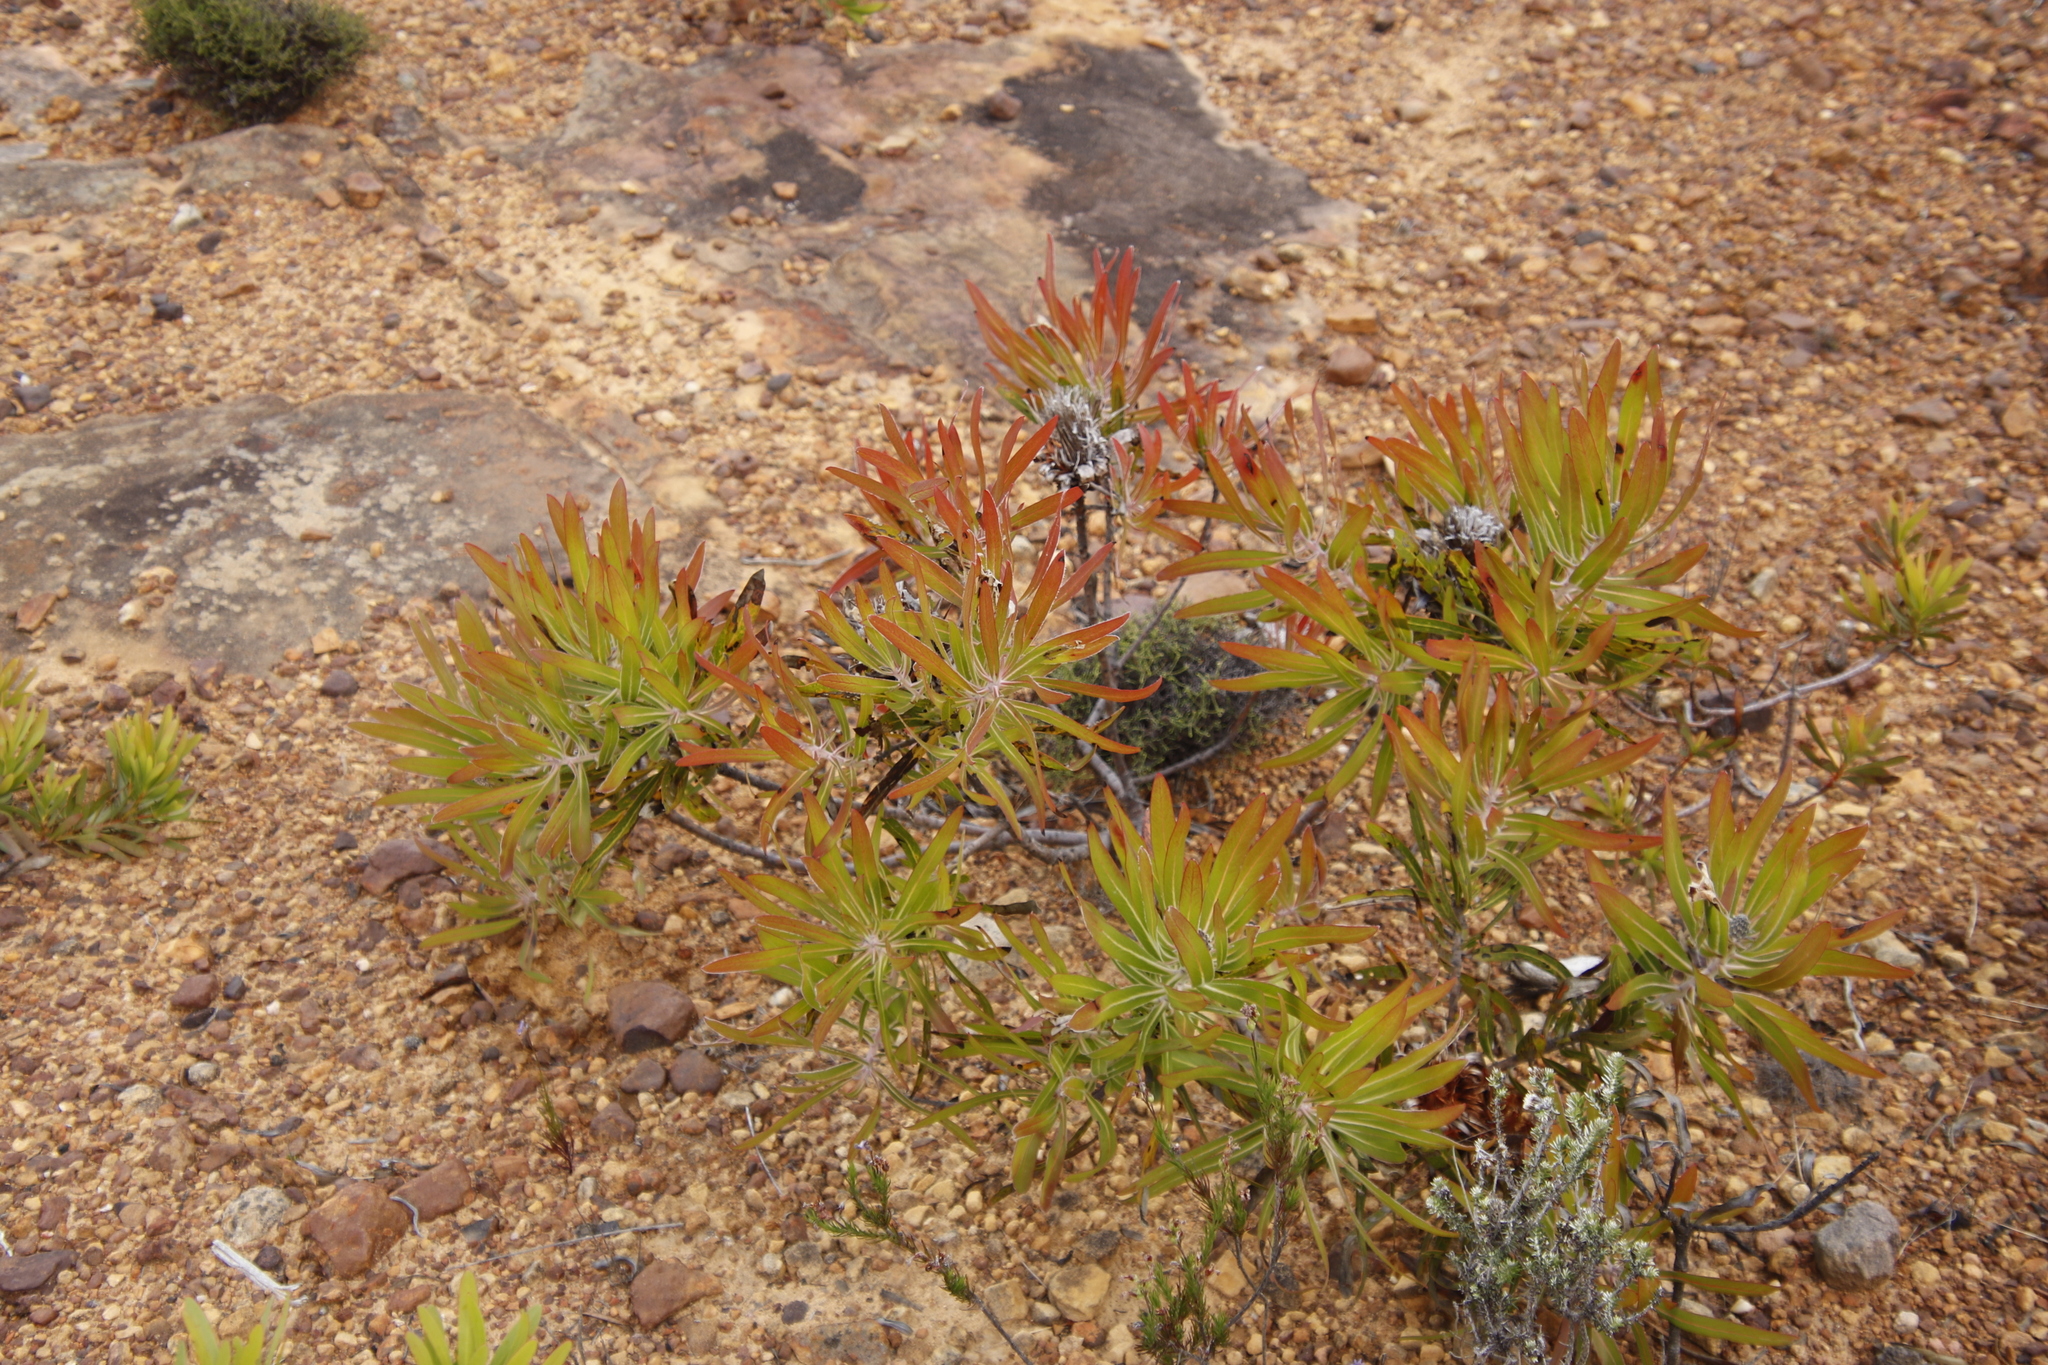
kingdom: Plantae
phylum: Tracheophyta
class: Magnoliopsida
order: Proteales
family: Proteaceae
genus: Protea
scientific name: Protea neriifolia
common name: Blue sugarbush
